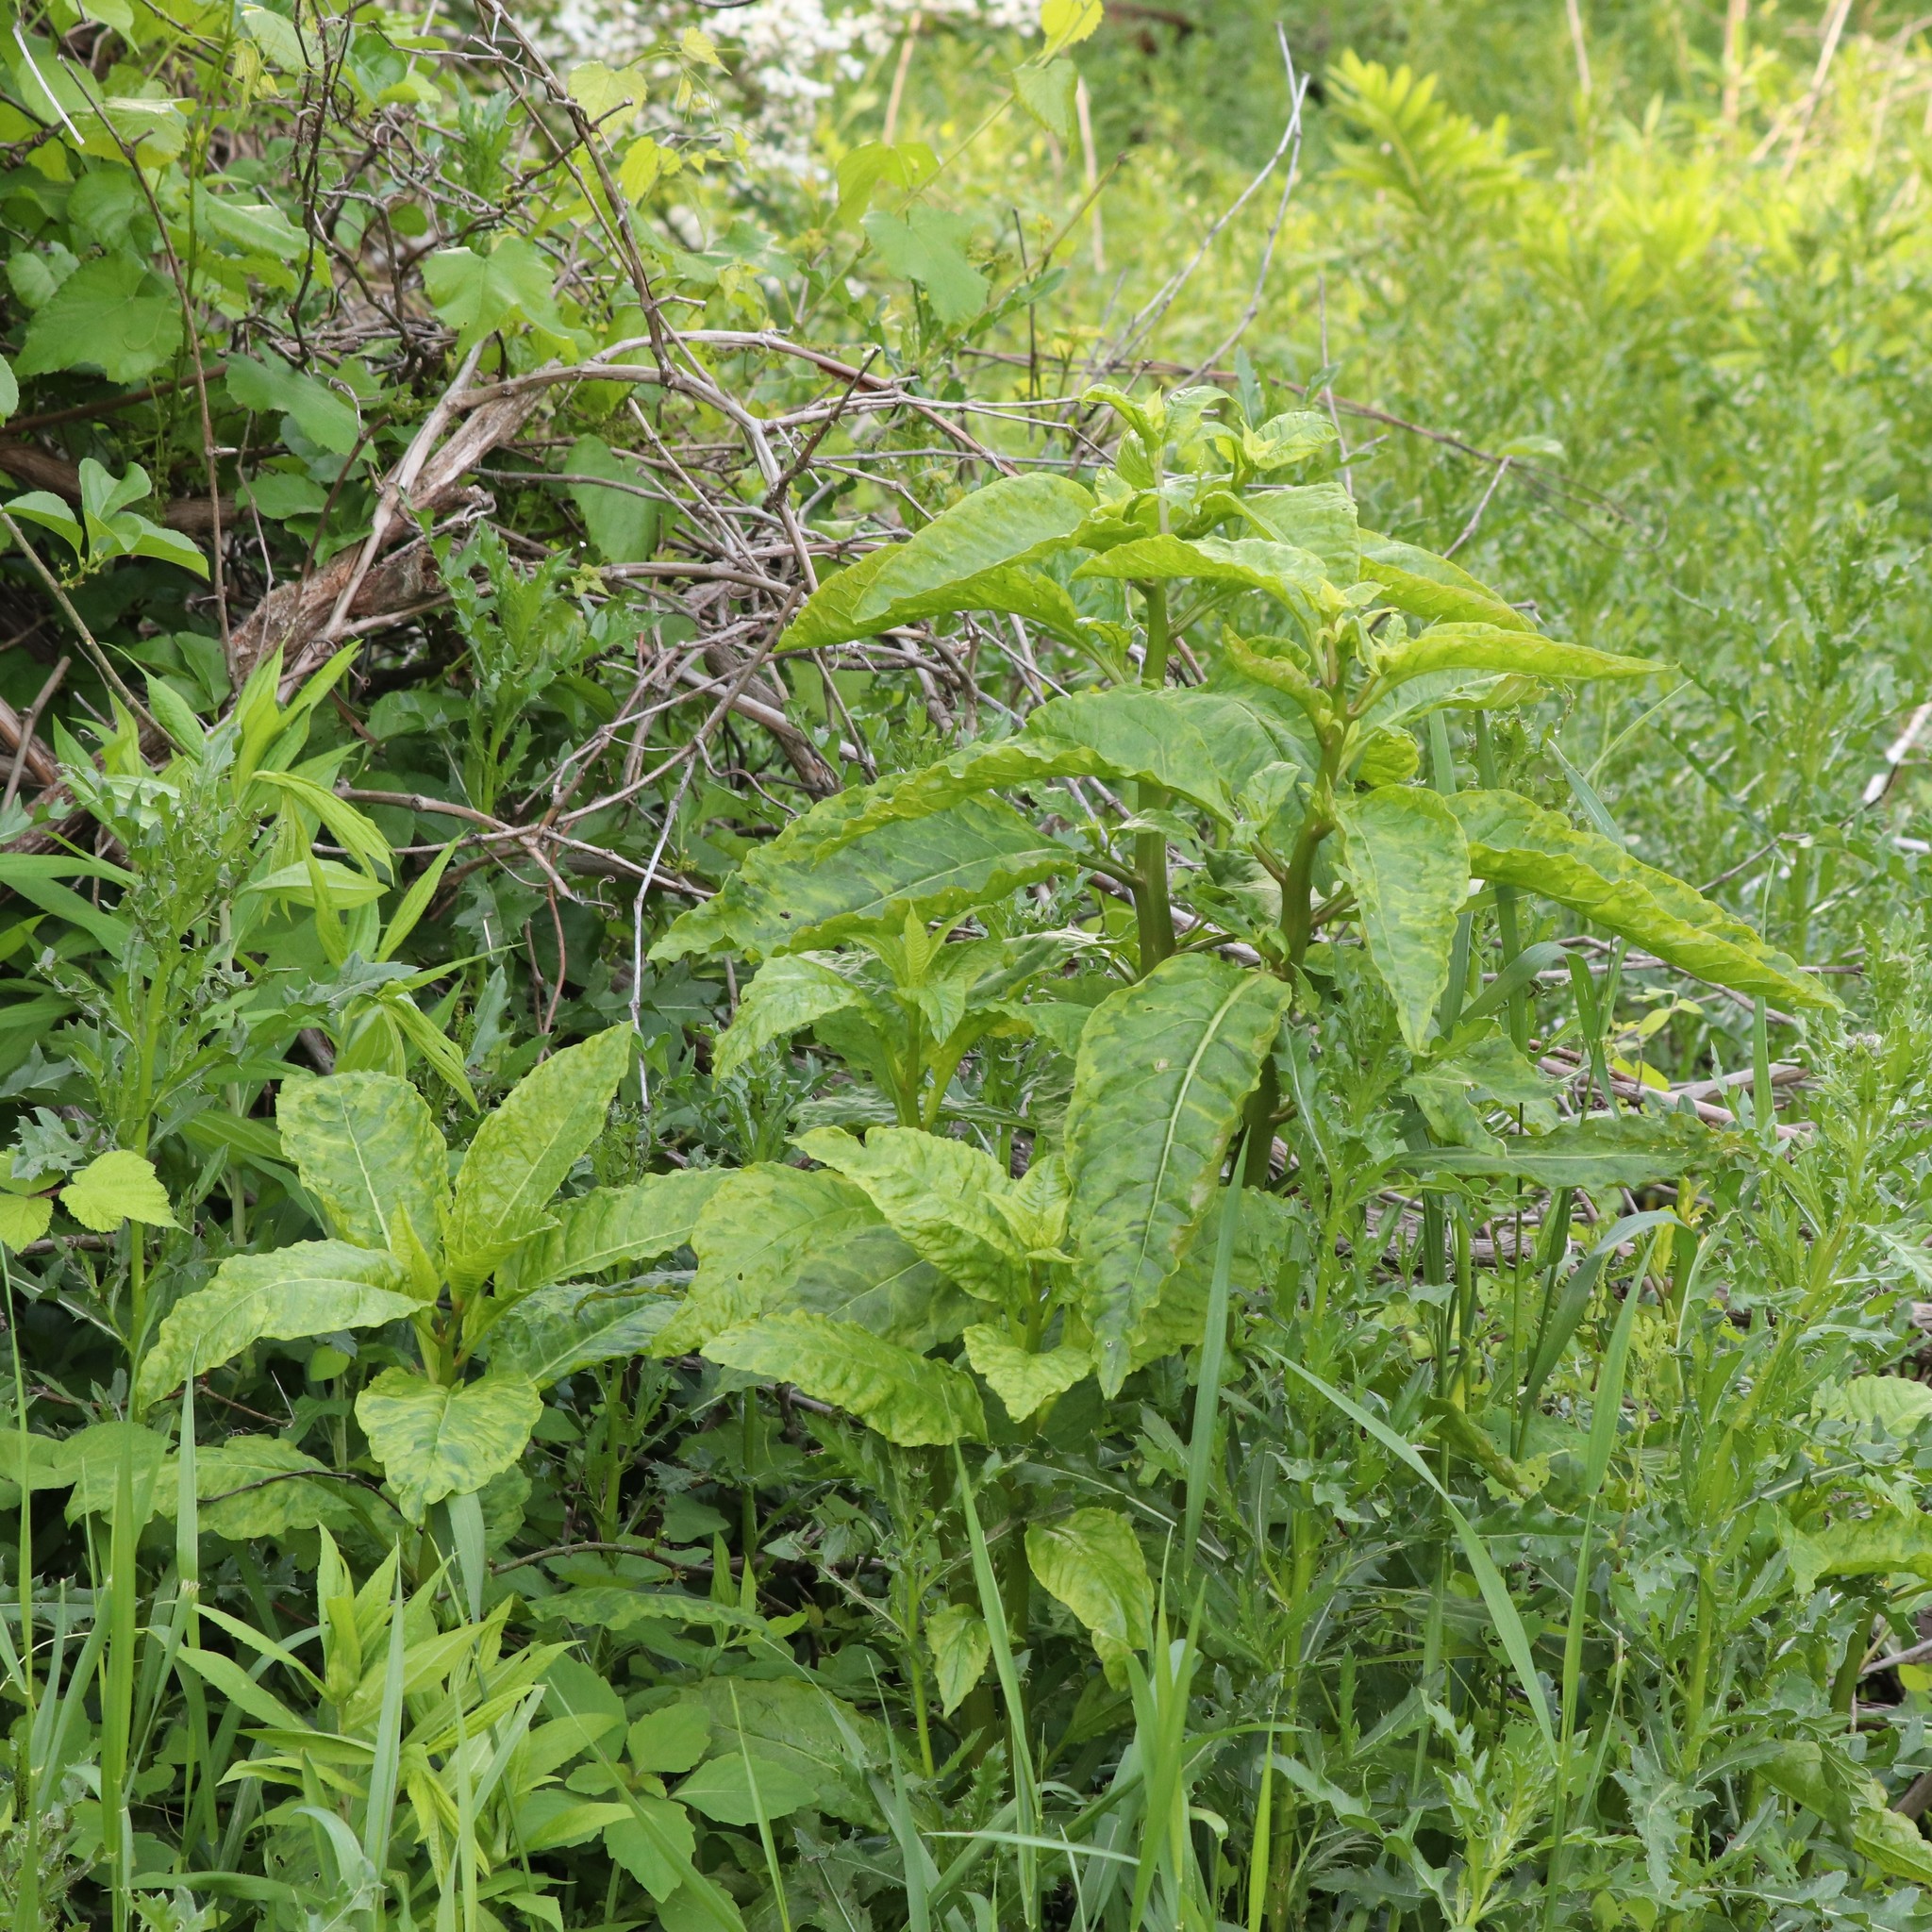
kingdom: Plantae
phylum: Tracheophyta
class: Magnoliopsida
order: Caryophyllales
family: Phytolaccaceae
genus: Phytolacca
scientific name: Phytolacca americana
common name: American pokeweed
